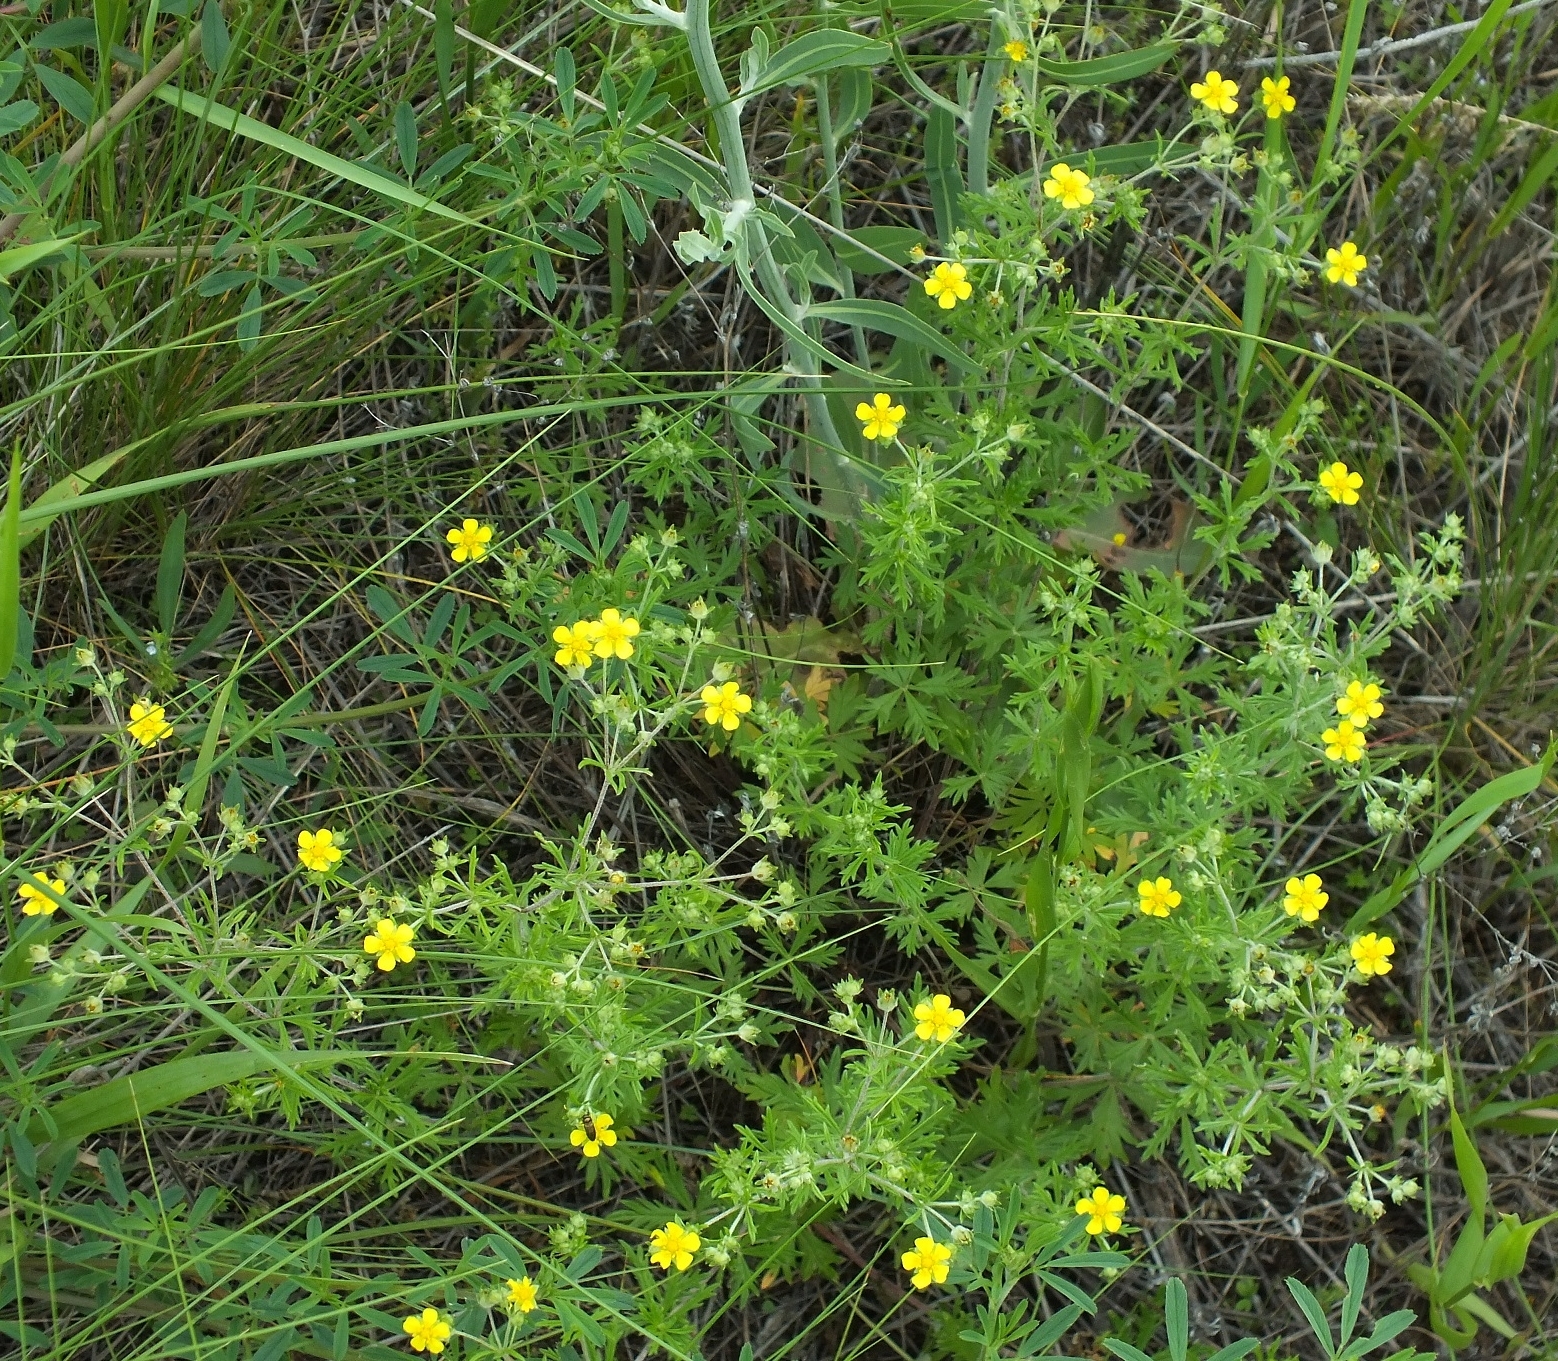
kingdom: Plantae
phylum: Tracheophyta
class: Magnoliopsida
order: Rosales
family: Rosaceae
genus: Potentilla
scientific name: Potentilla argentea
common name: Hoary cinquefoil
